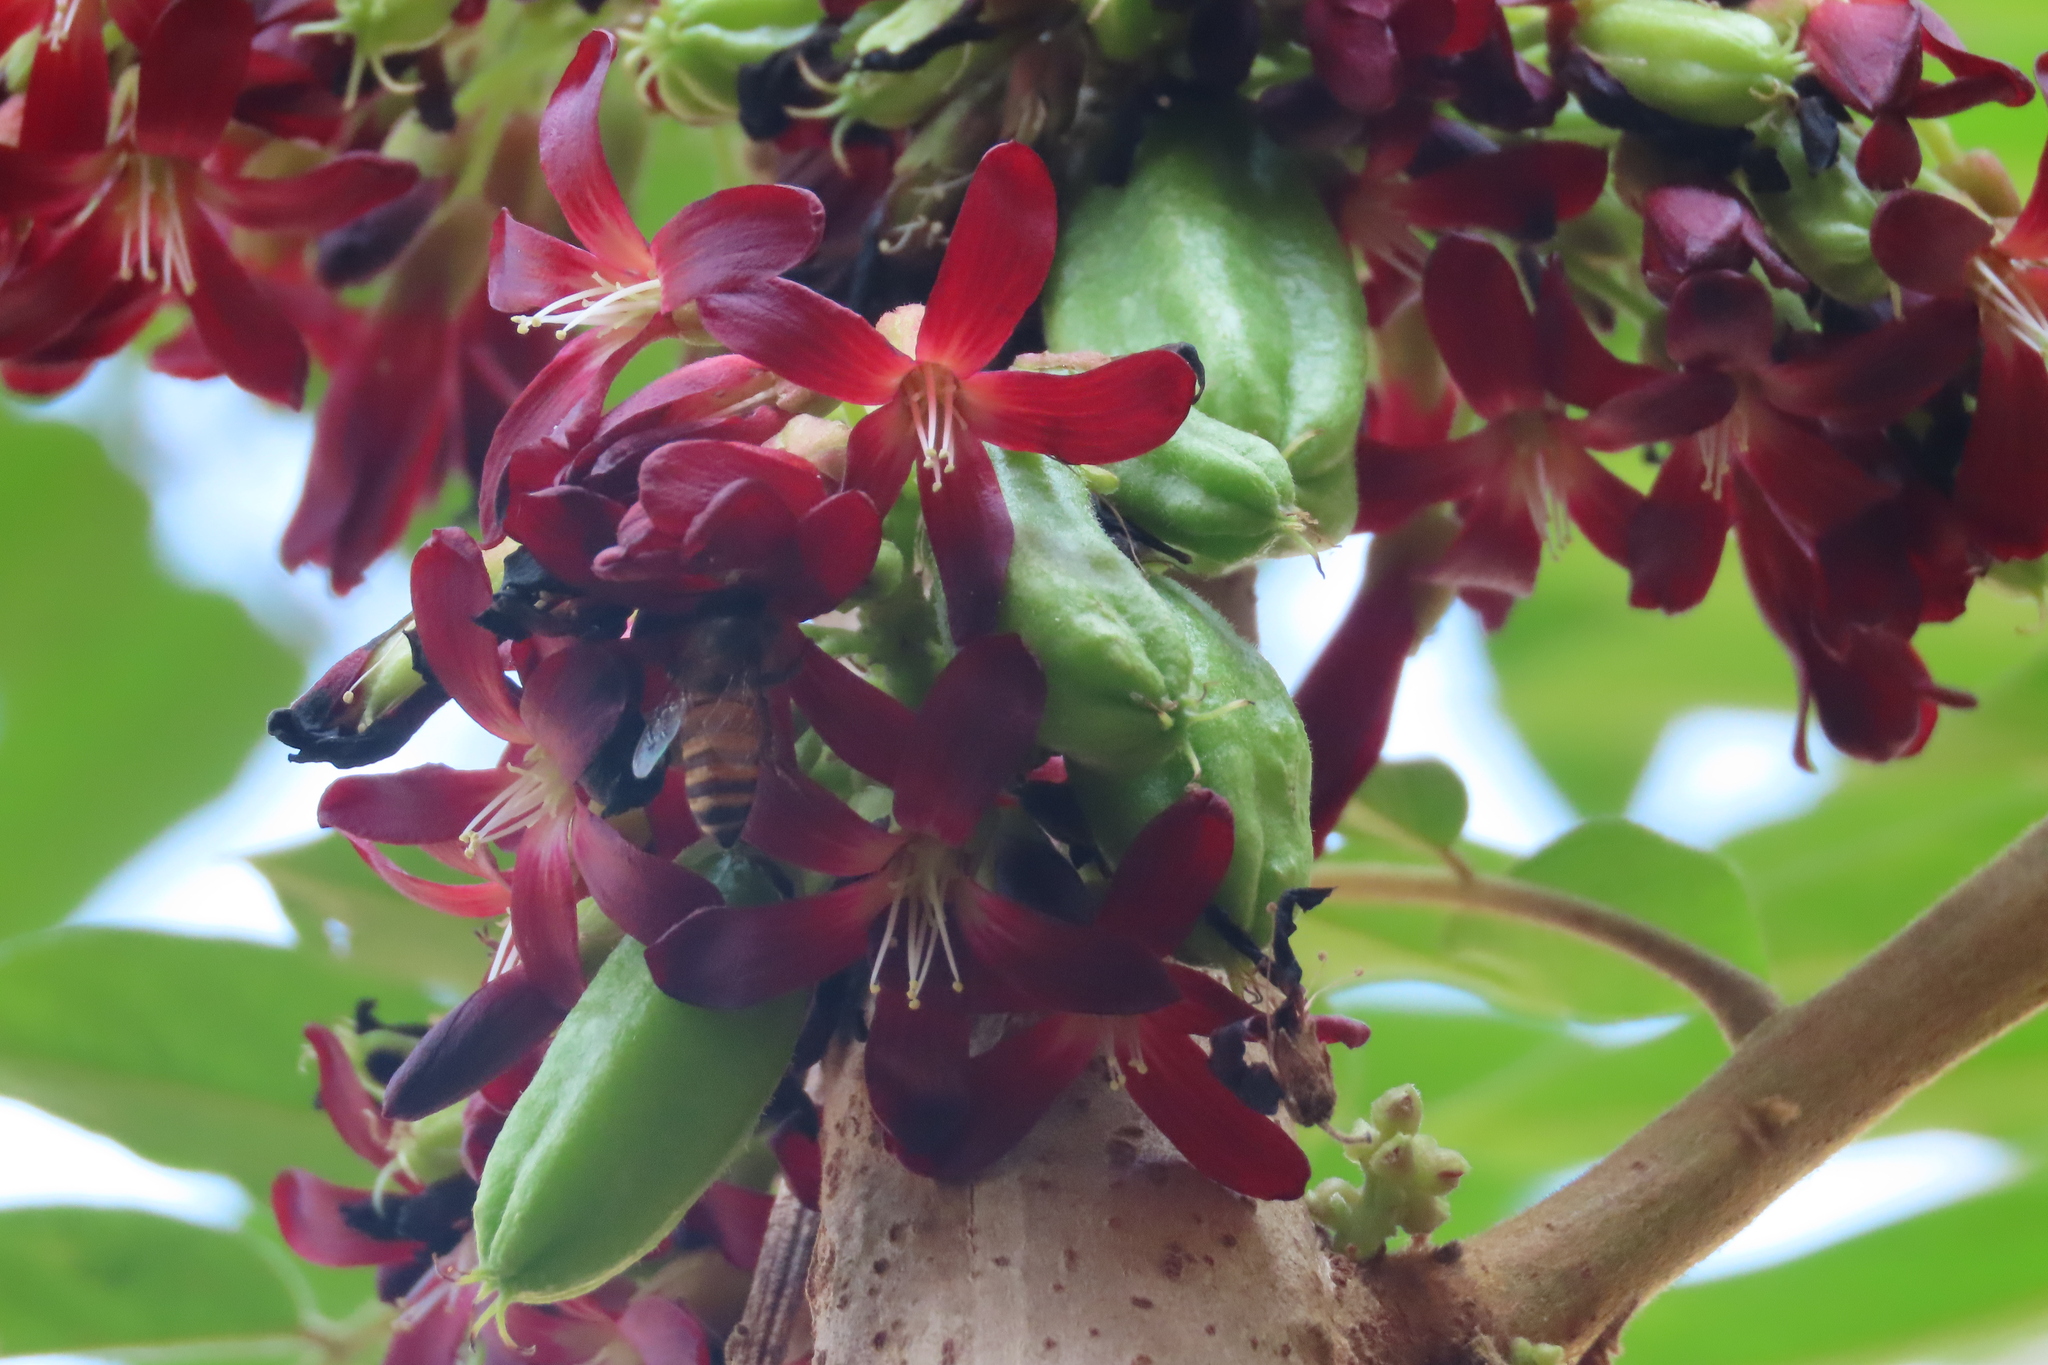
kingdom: Animalia
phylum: Arthropoda
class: Insecta
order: Hymenoptera
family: Apidae
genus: Apis
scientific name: Apis cerana
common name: Honey bee
